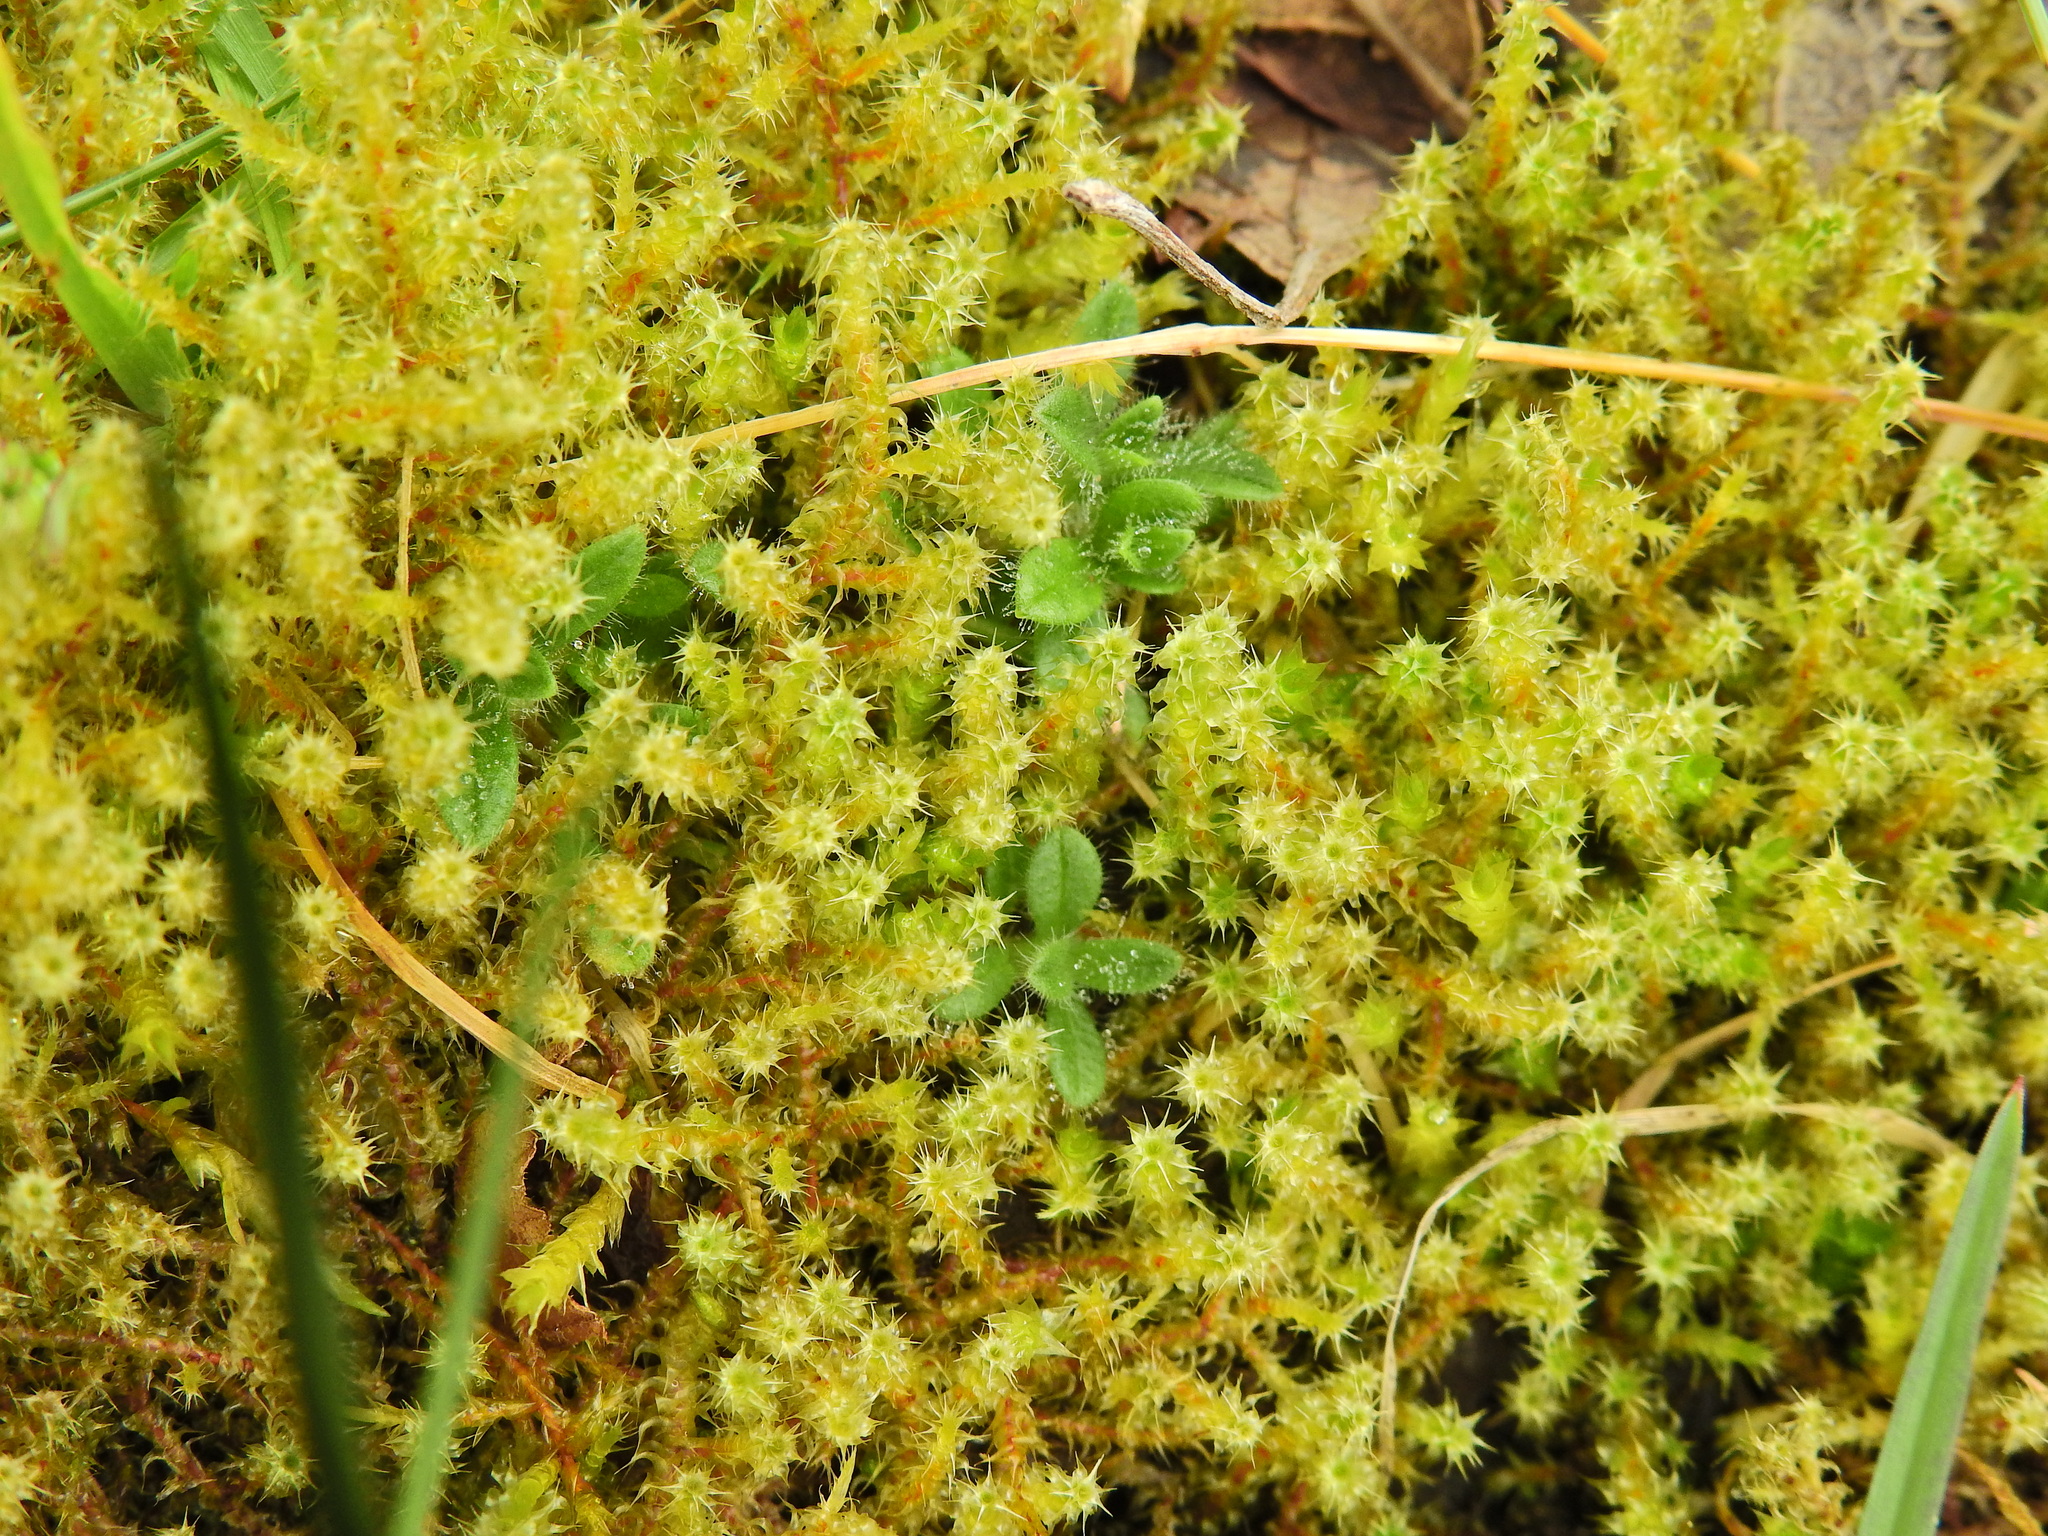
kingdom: Plantae
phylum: Bryophyta
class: Bryopsida
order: Hypnales
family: Hylocomiaceae
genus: Rhytidiadelphus
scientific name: Rhytidiadelphus squarrosus
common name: Springy turf-moss
